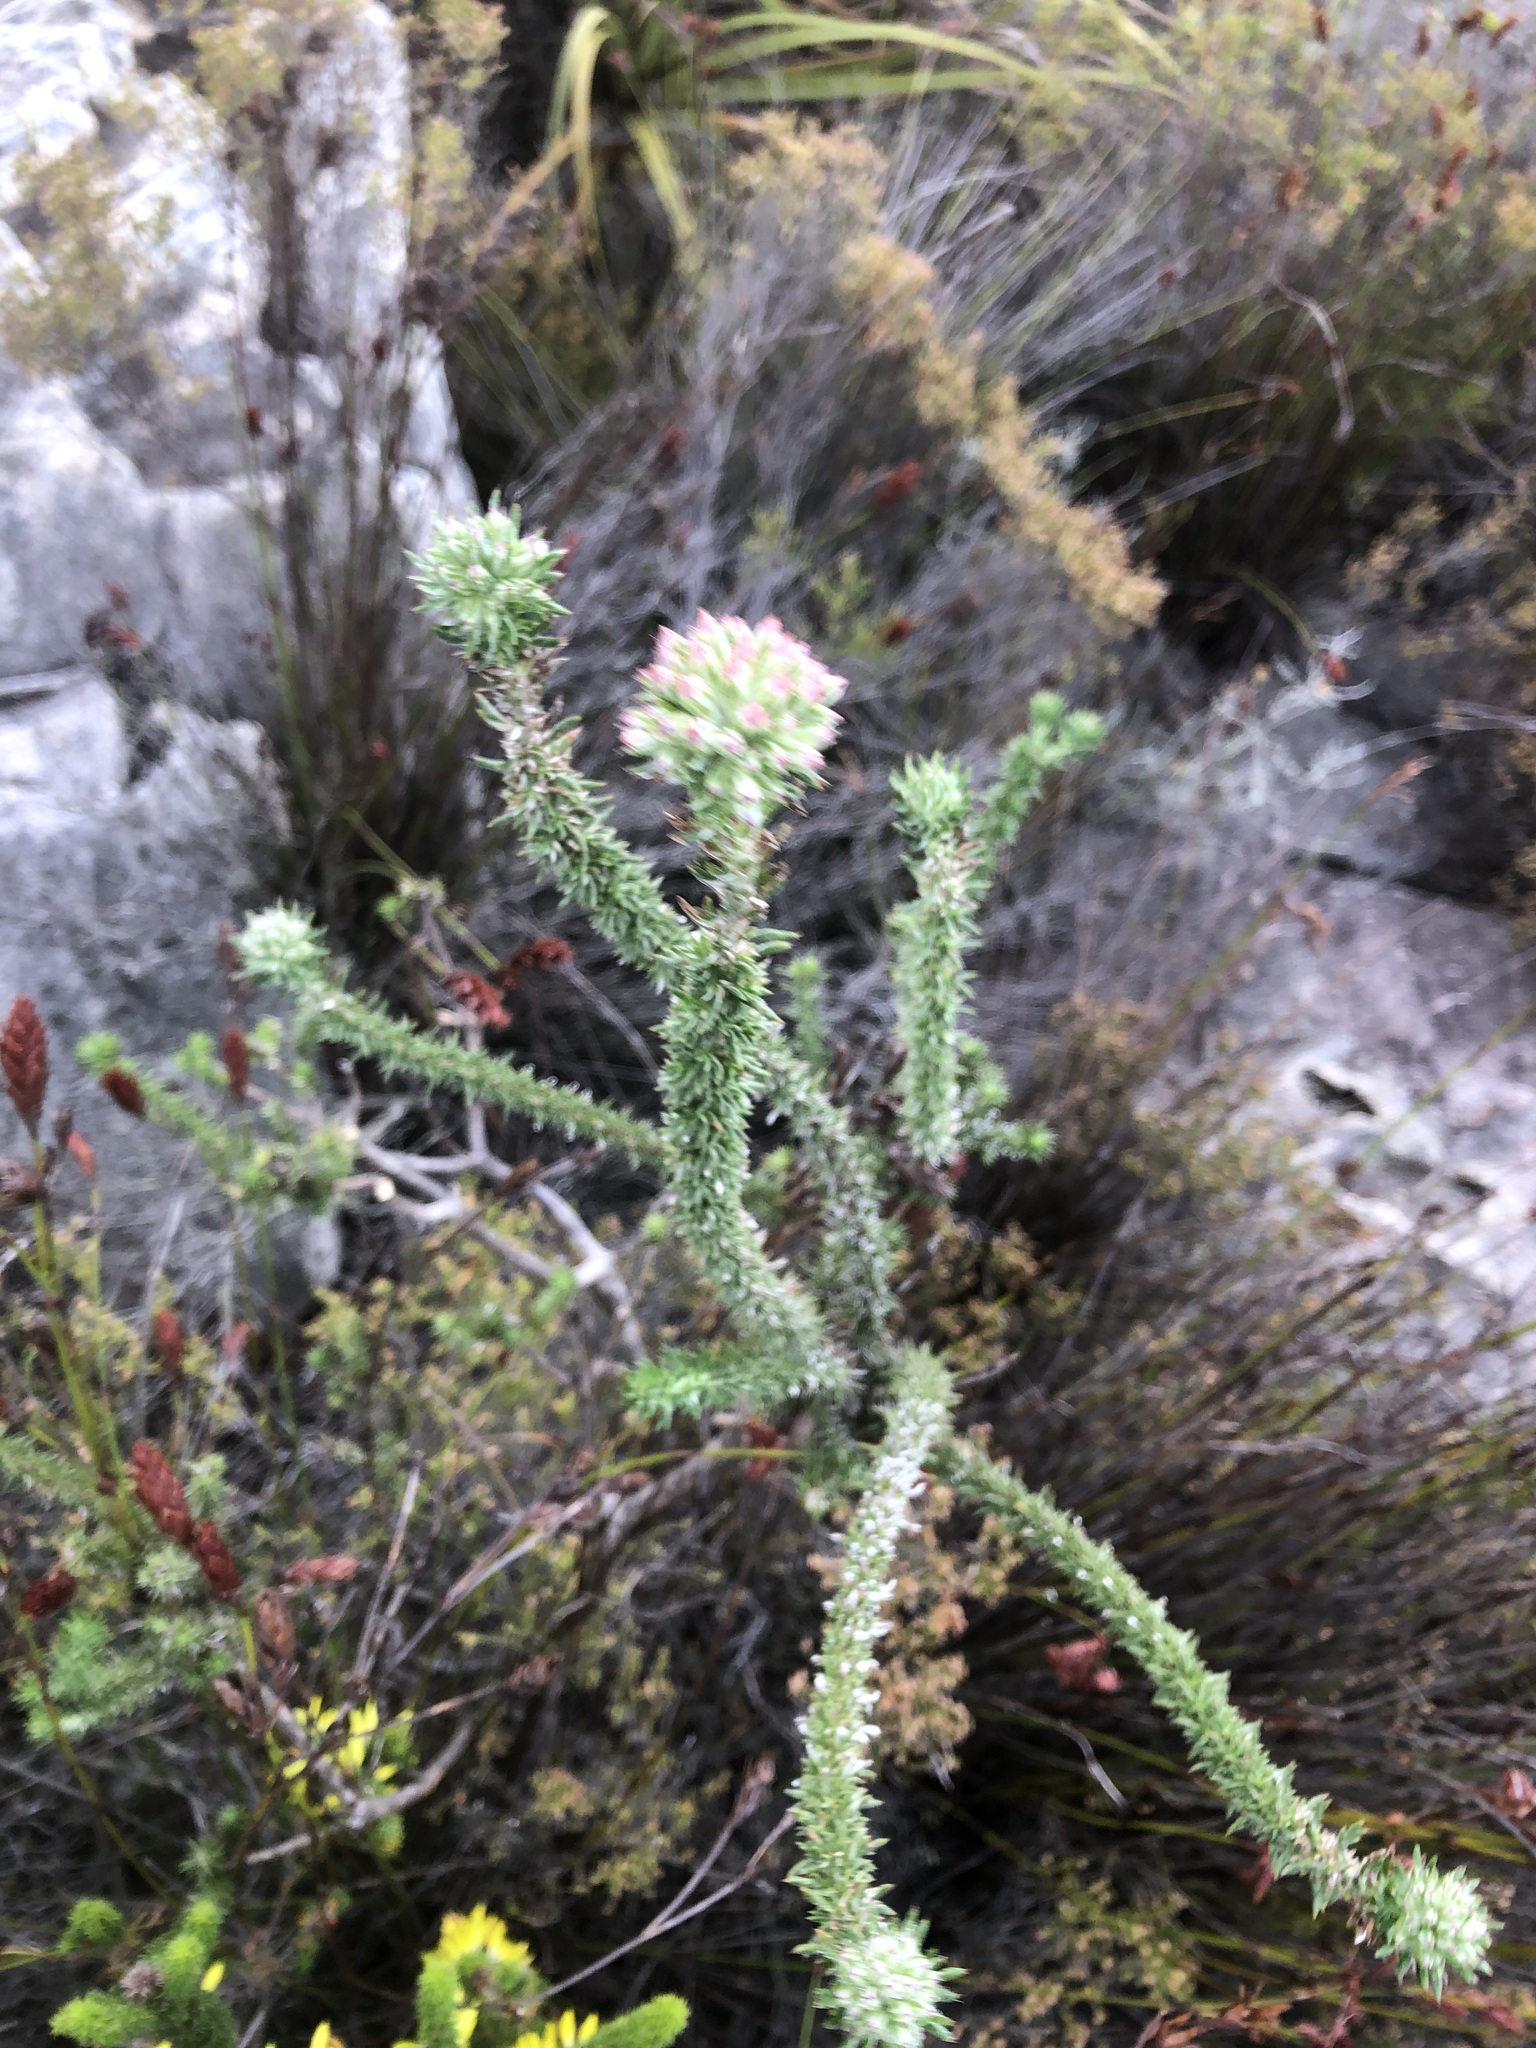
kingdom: Plantae
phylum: Tracheophyta
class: Magnoliopsida
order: Asterales
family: Asteraceae
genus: Metalasia
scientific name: Metalasia lichtensteinii
